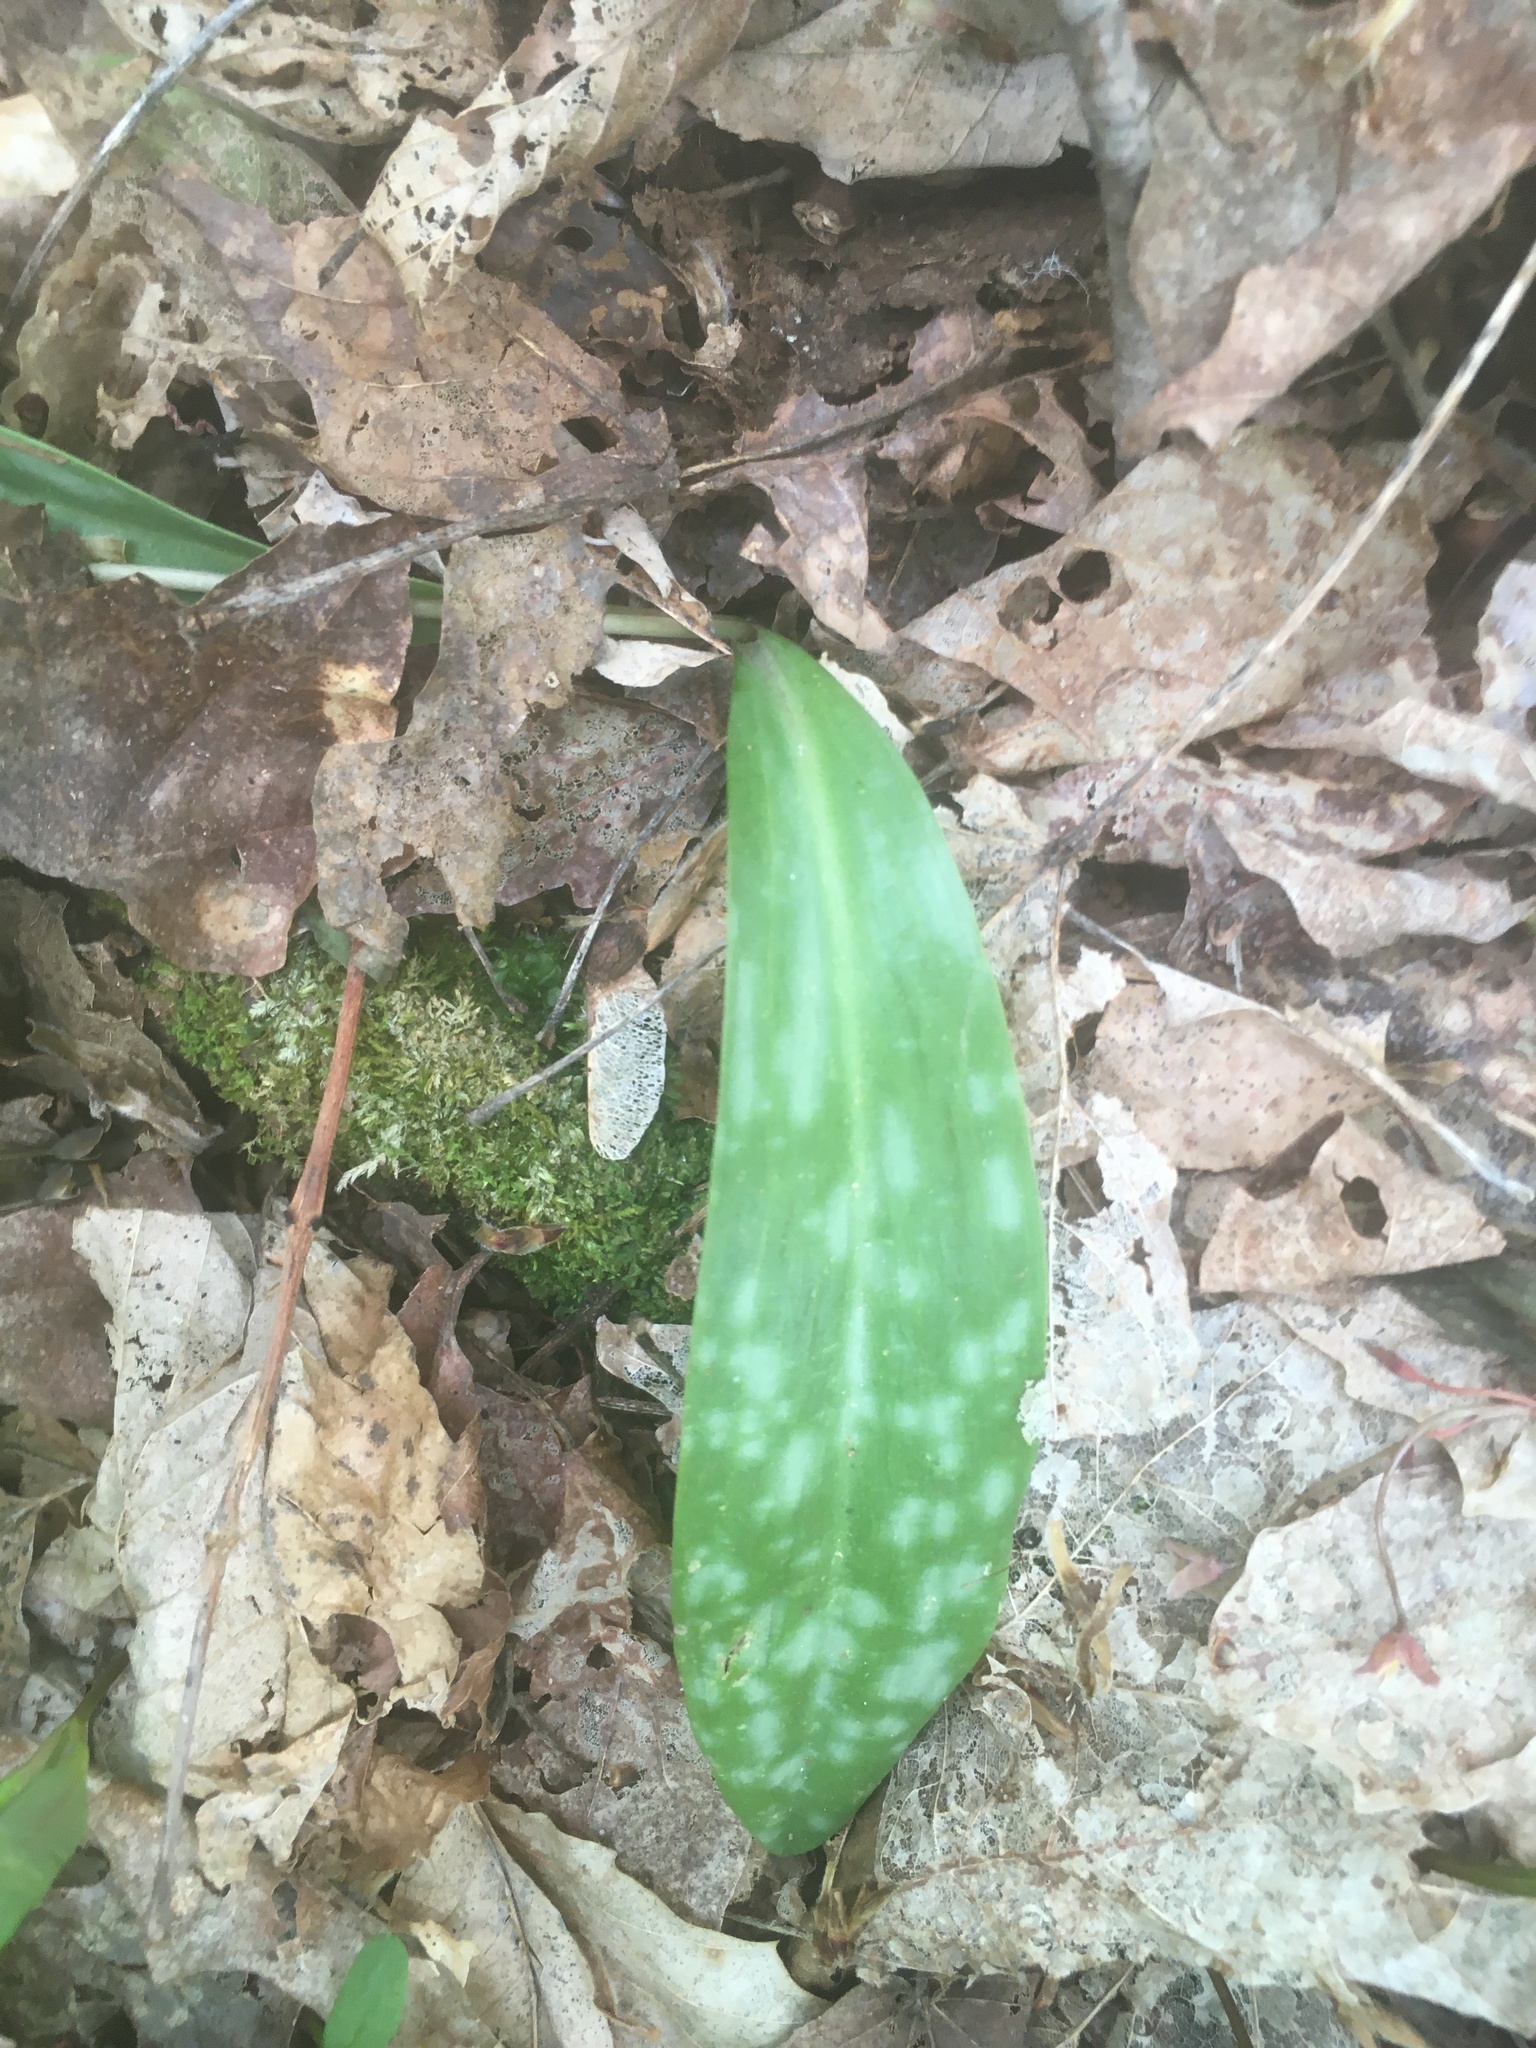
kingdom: Plantae
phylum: Tracheophyta
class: Liliopsida
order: Liliales
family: Liliaceae
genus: Erythronium
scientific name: Erythronium americanum
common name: Yellow adder's-tongue
